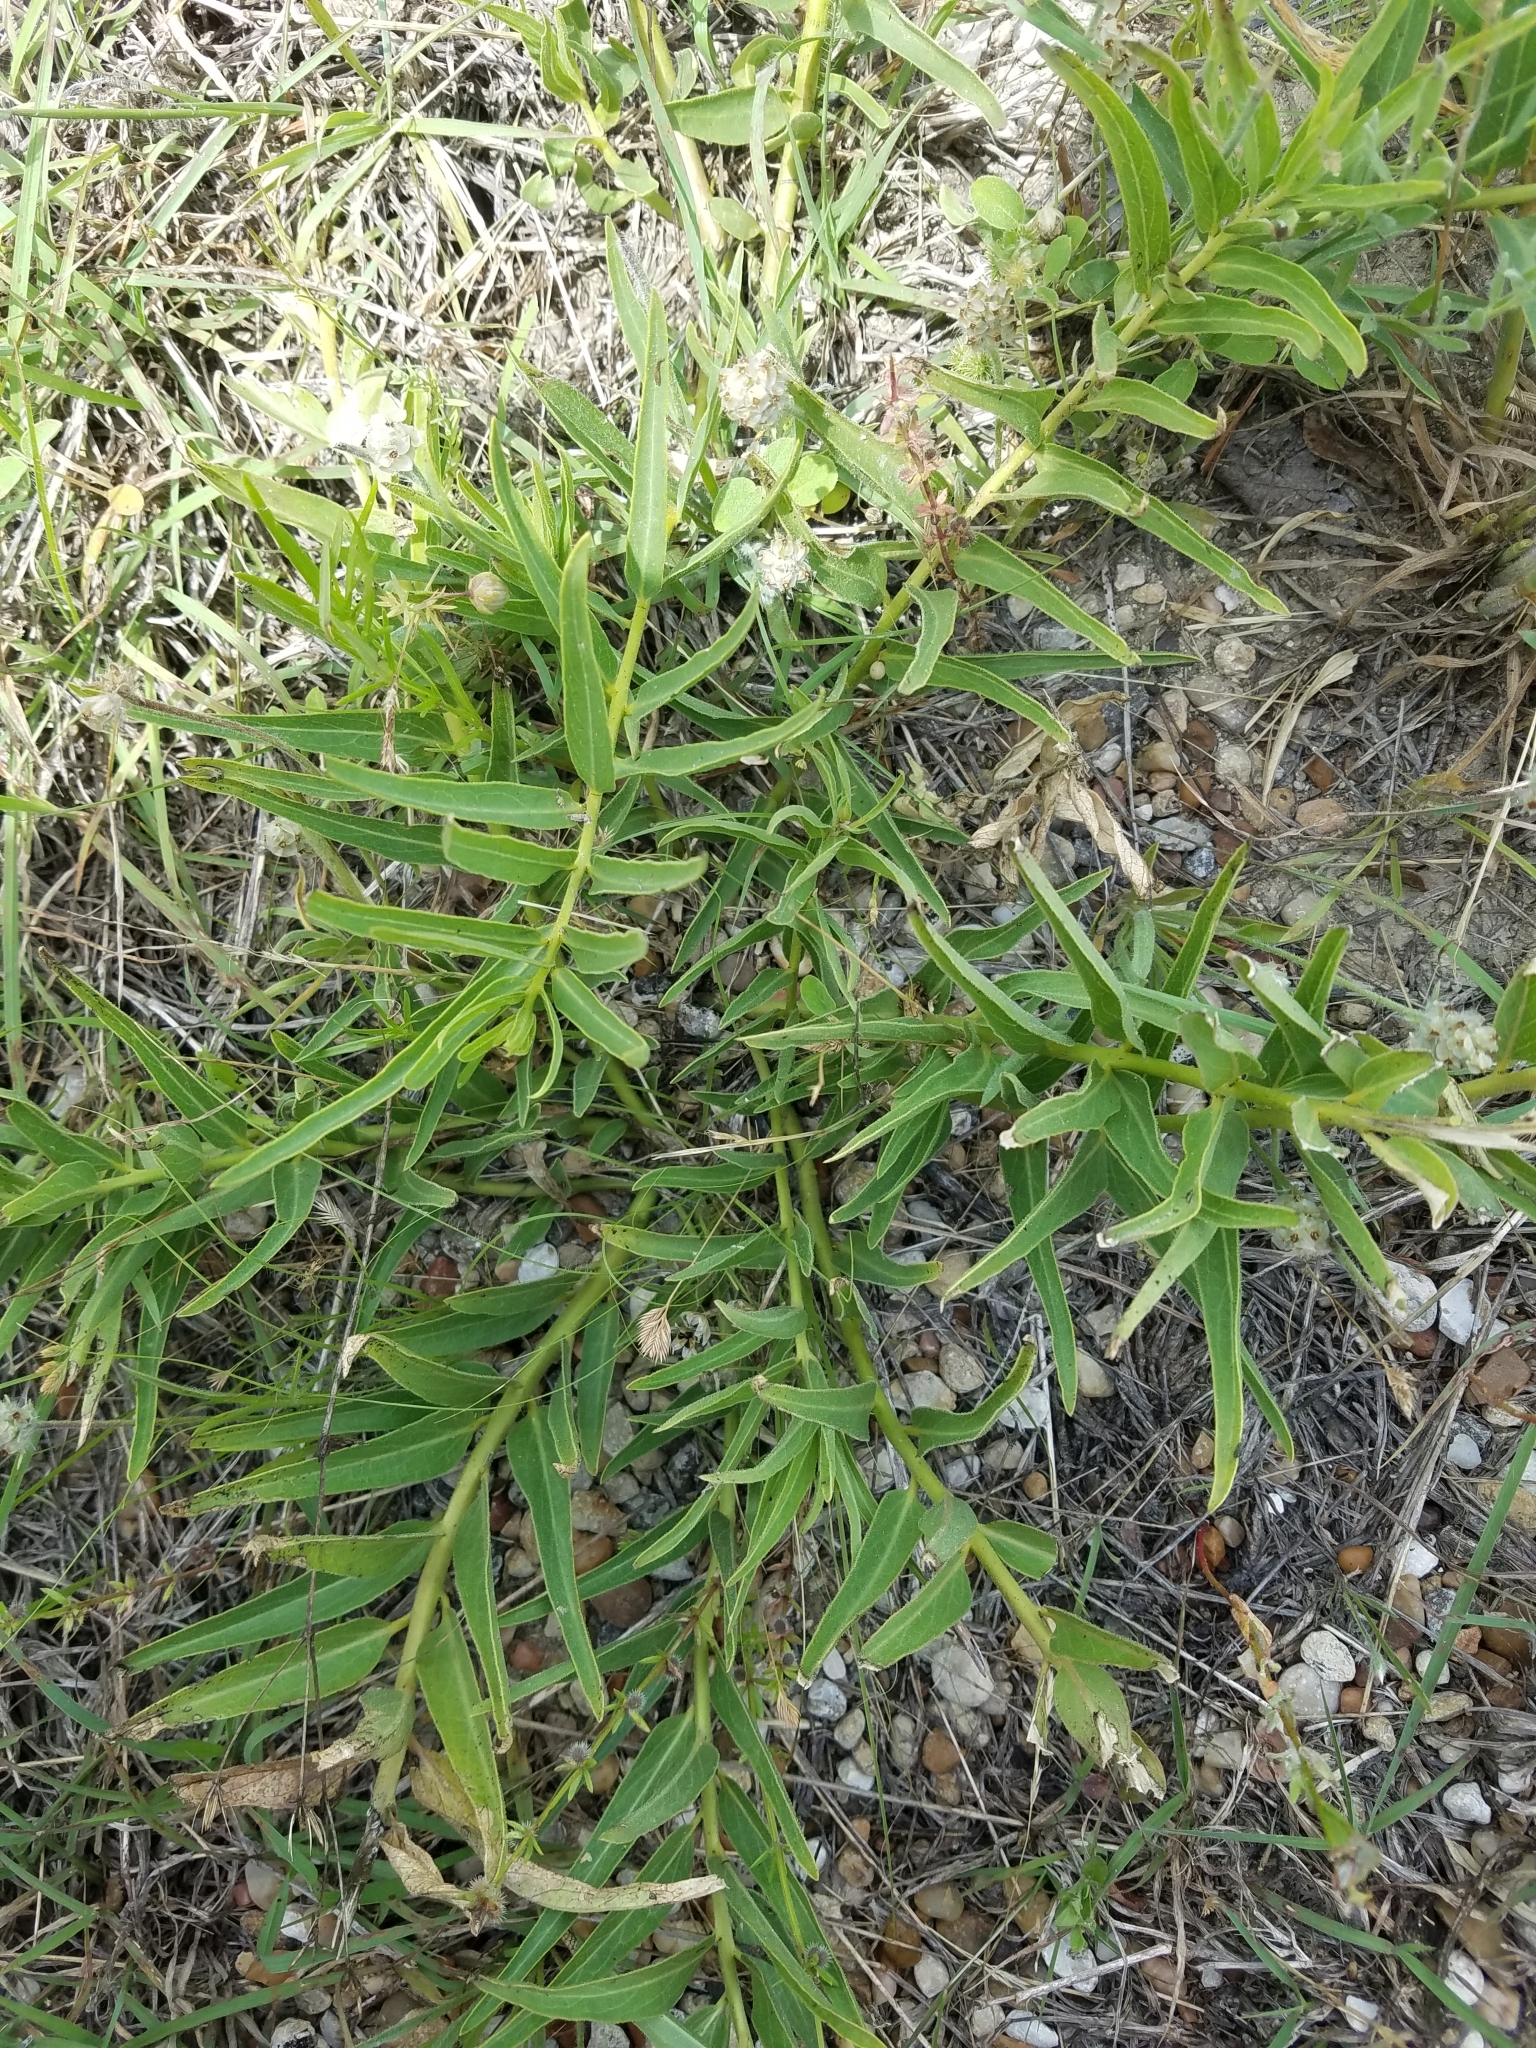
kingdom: Plantae
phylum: Tracheophyta
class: Magnoliopsida
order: Gentianales
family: Apocynaceae
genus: Asclepias
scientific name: Asclepias asperula
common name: Antelope horns
